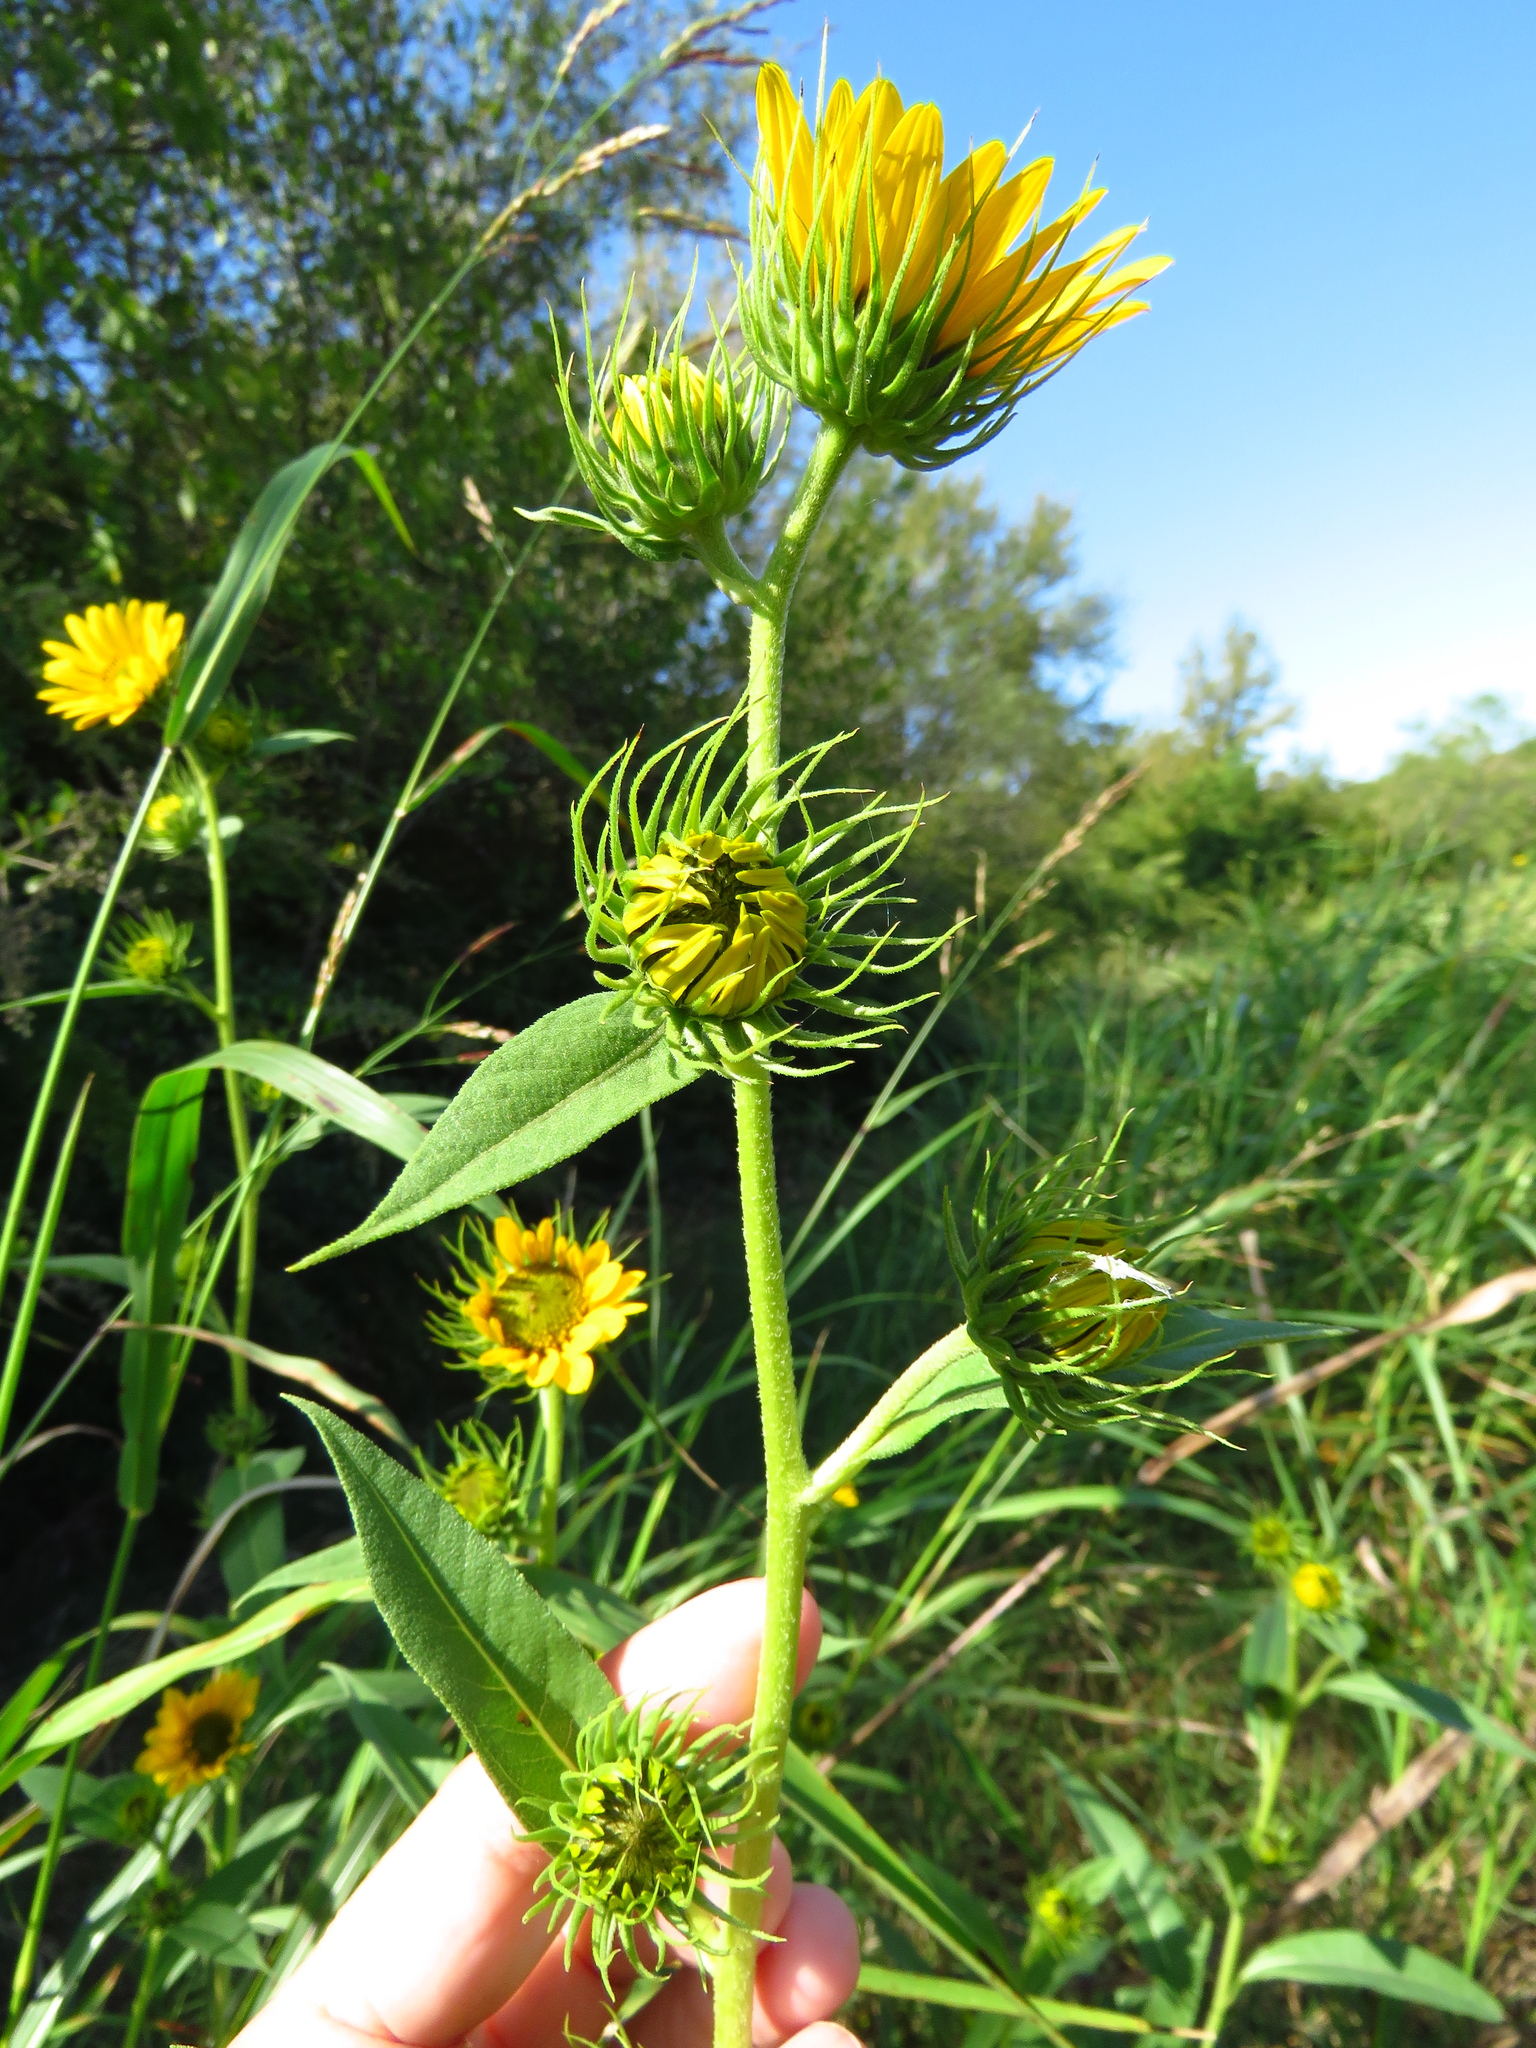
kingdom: Plantae
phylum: Tracheophyta
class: Magnoliopsida
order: Asterales
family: Asteraceae
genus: Helianthus
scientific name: Helianthus maximiliani
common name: Maximilian's sunflower
